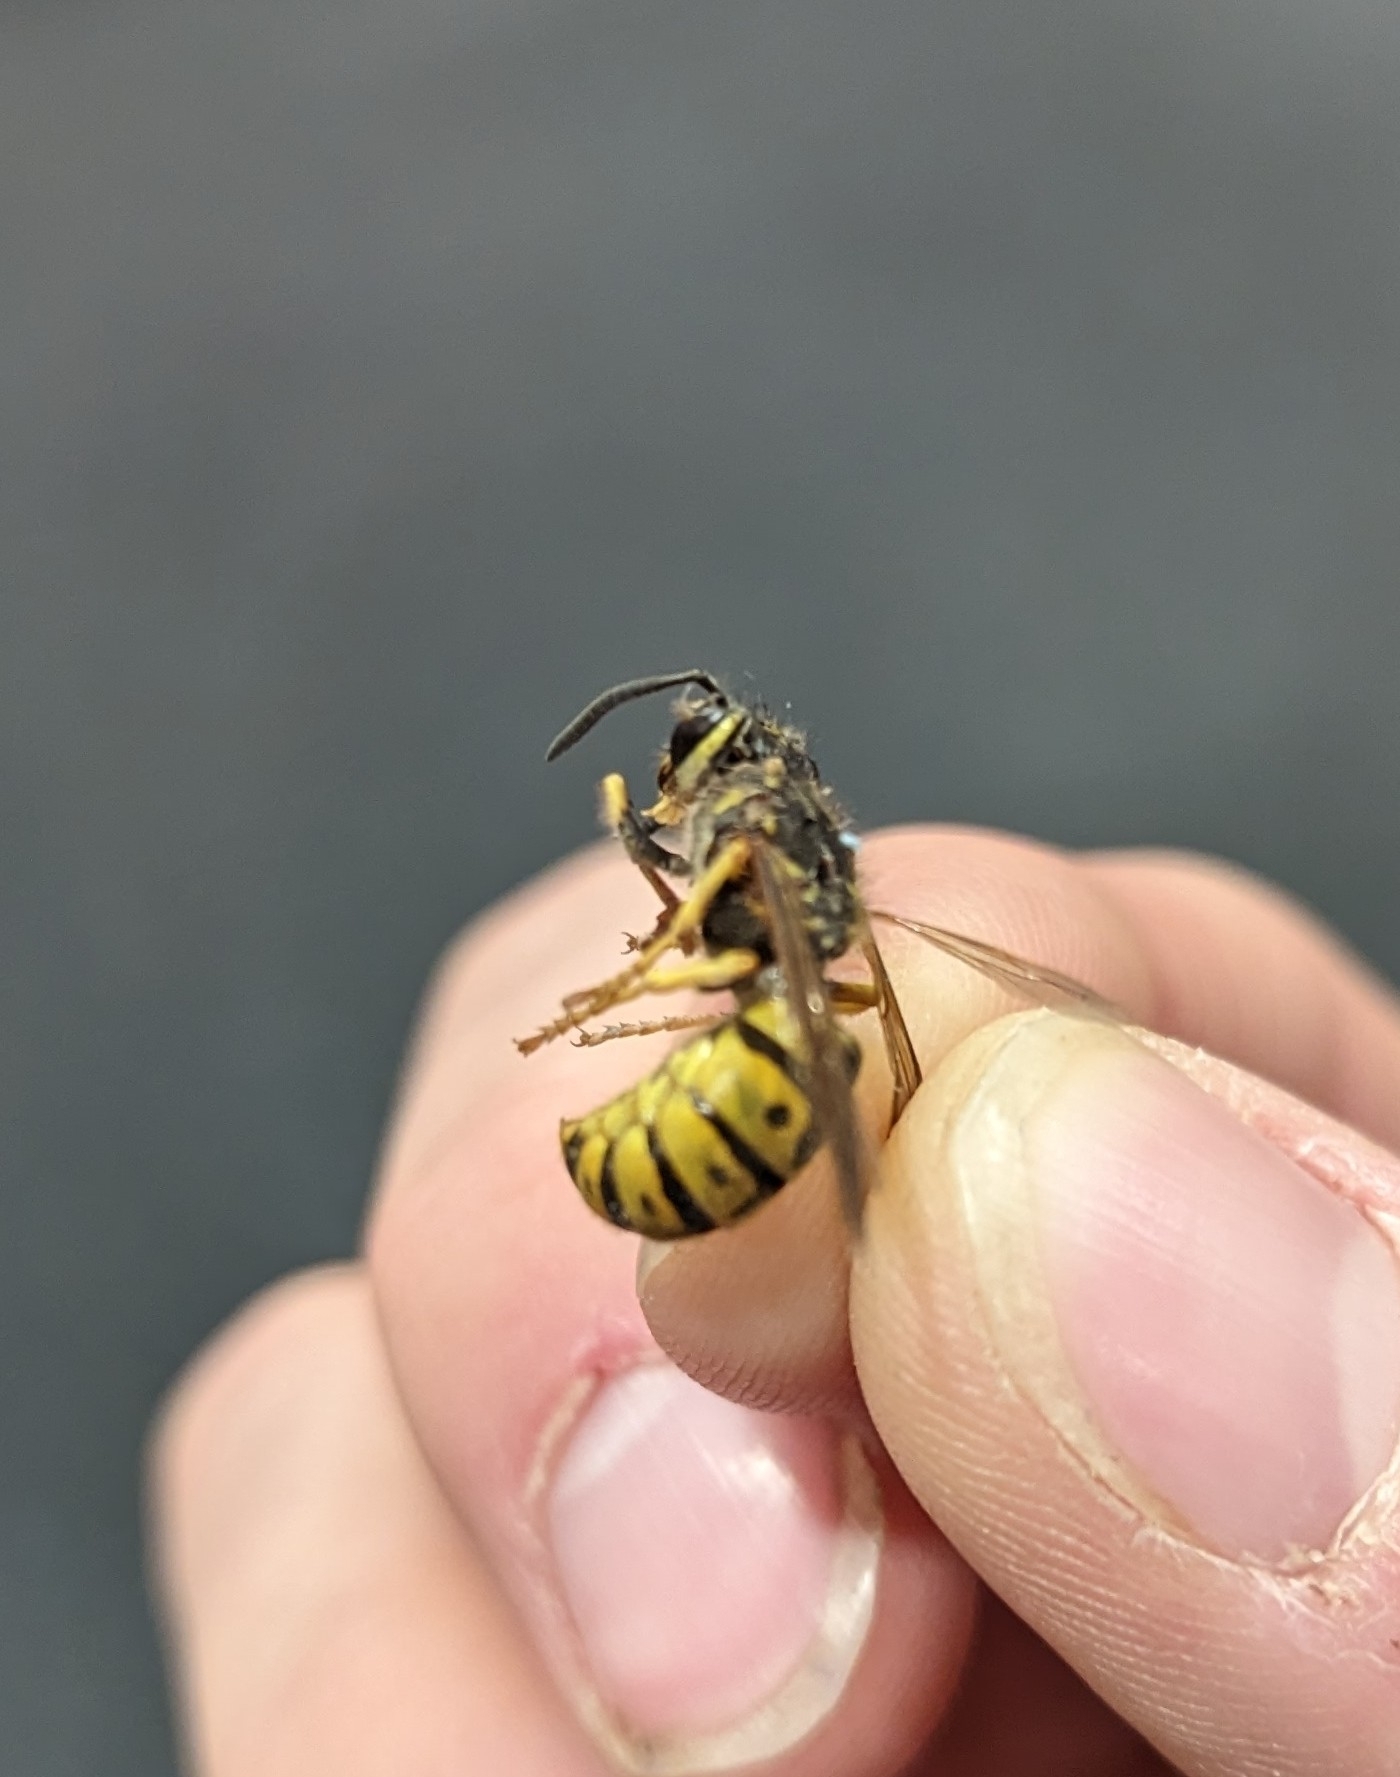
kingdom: Animalia
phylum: Arthropoda
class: Insecta
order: Hymenoptera
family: Vespidae
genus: Vespula
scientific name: Vespula germanica
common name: German wasp
